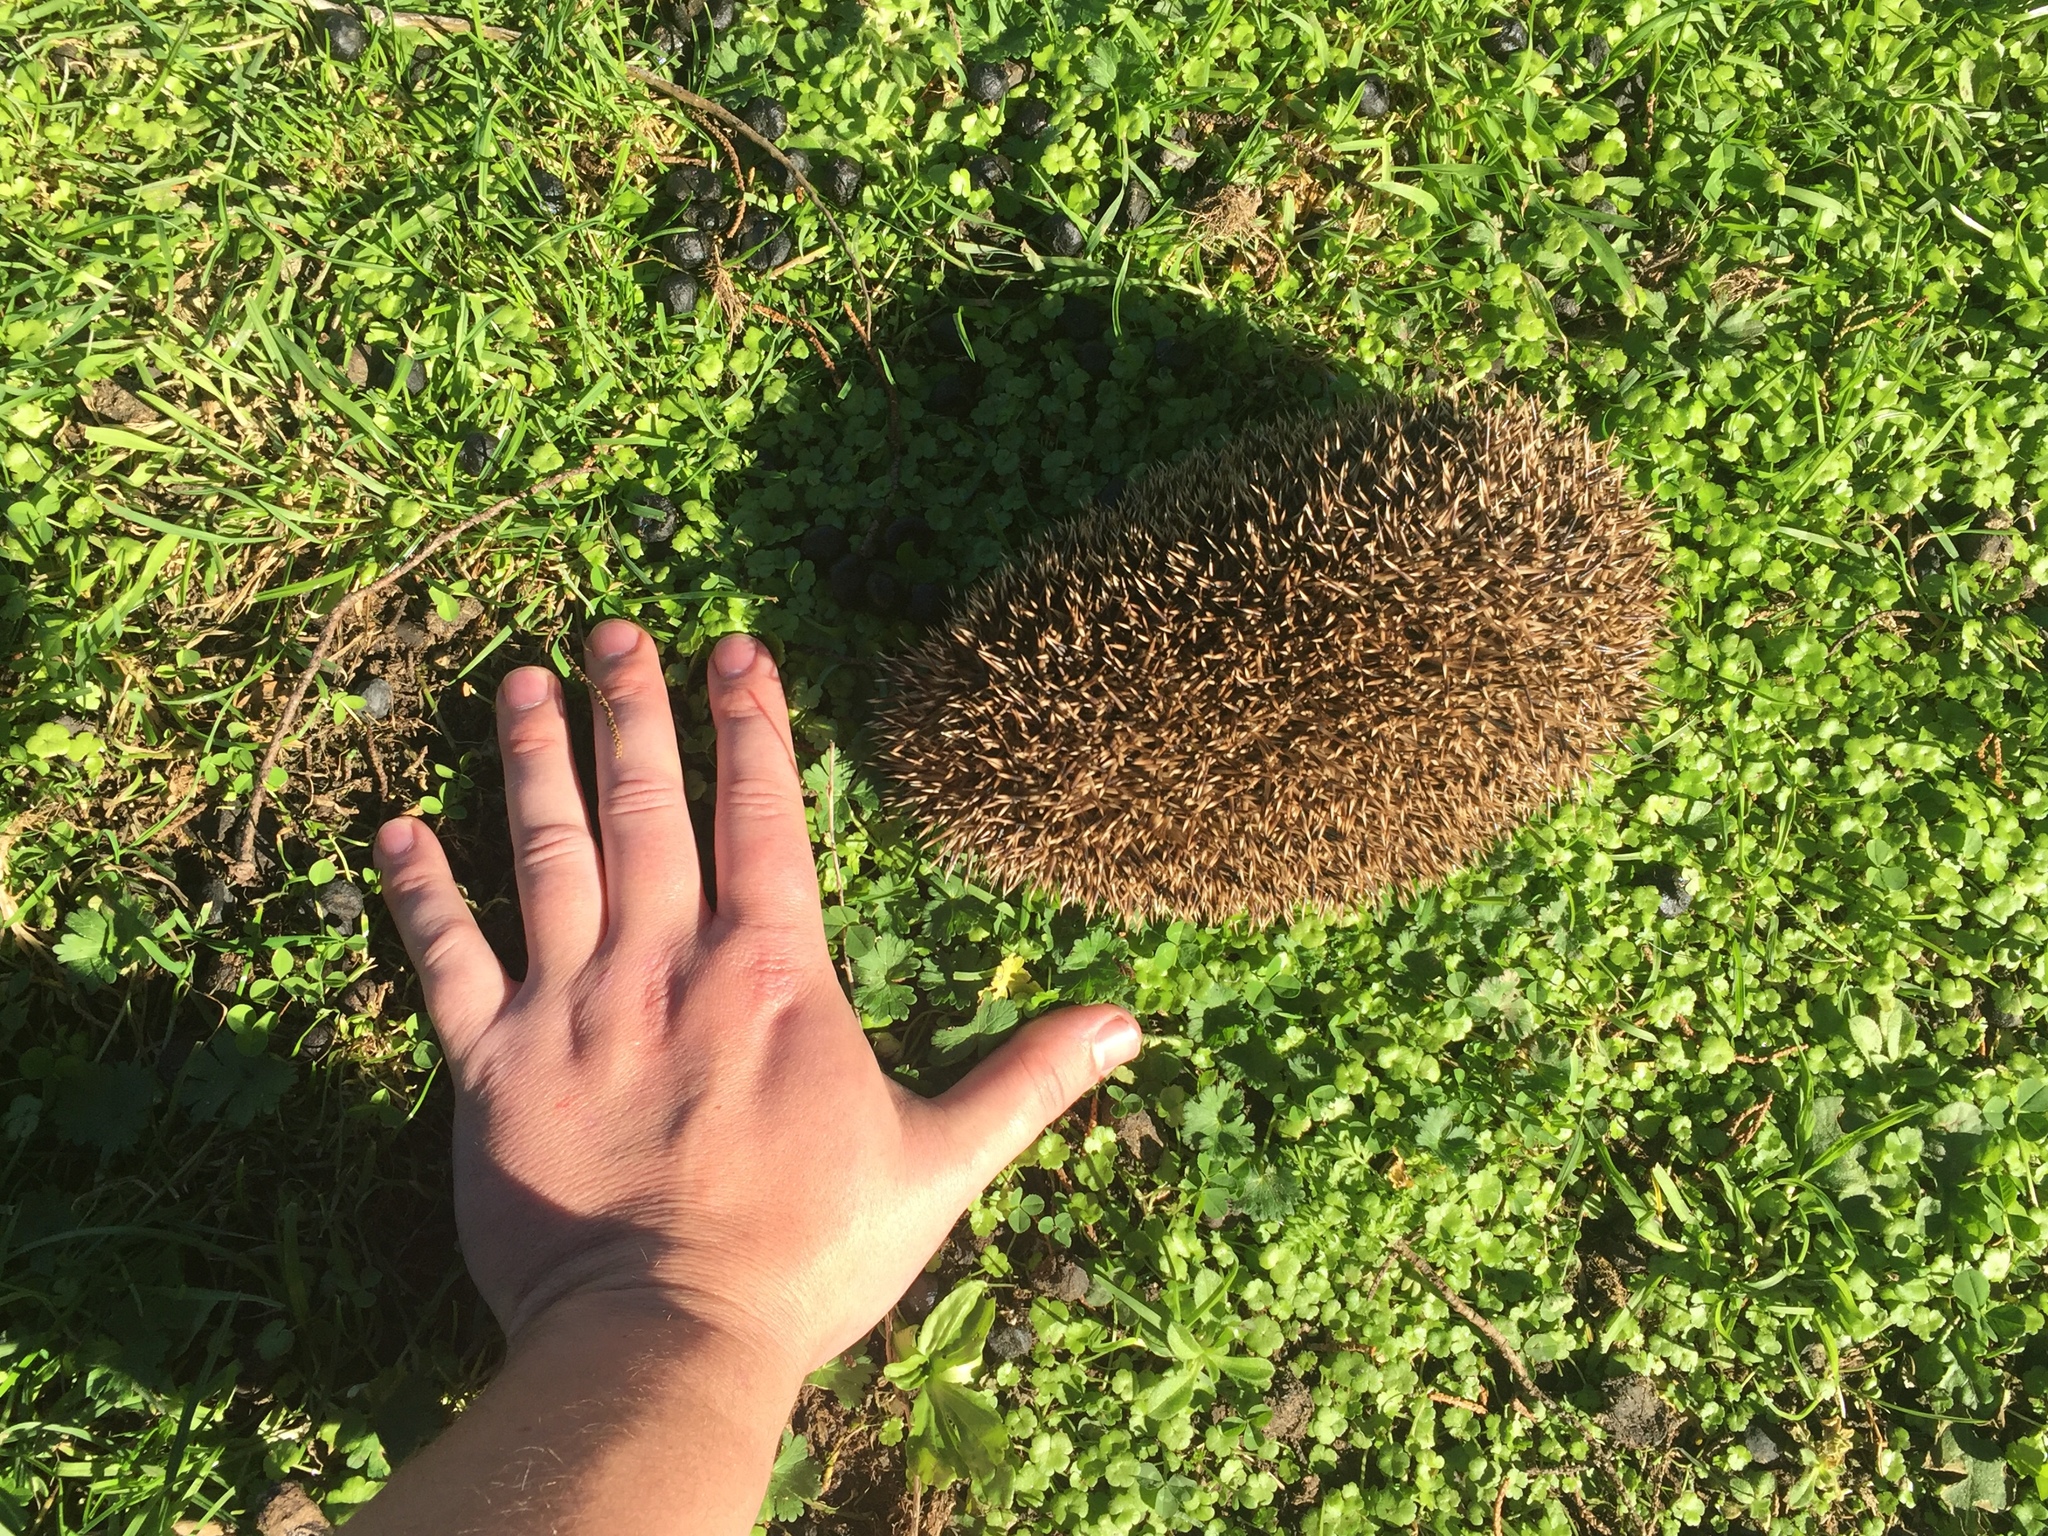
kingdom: Animalia
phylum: Chordata
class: Mammalia
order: Erinaceomorpha
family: Erinaceidae
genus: Erinaceus
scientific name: Erinaceus europaeus
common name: West european hedgehog
